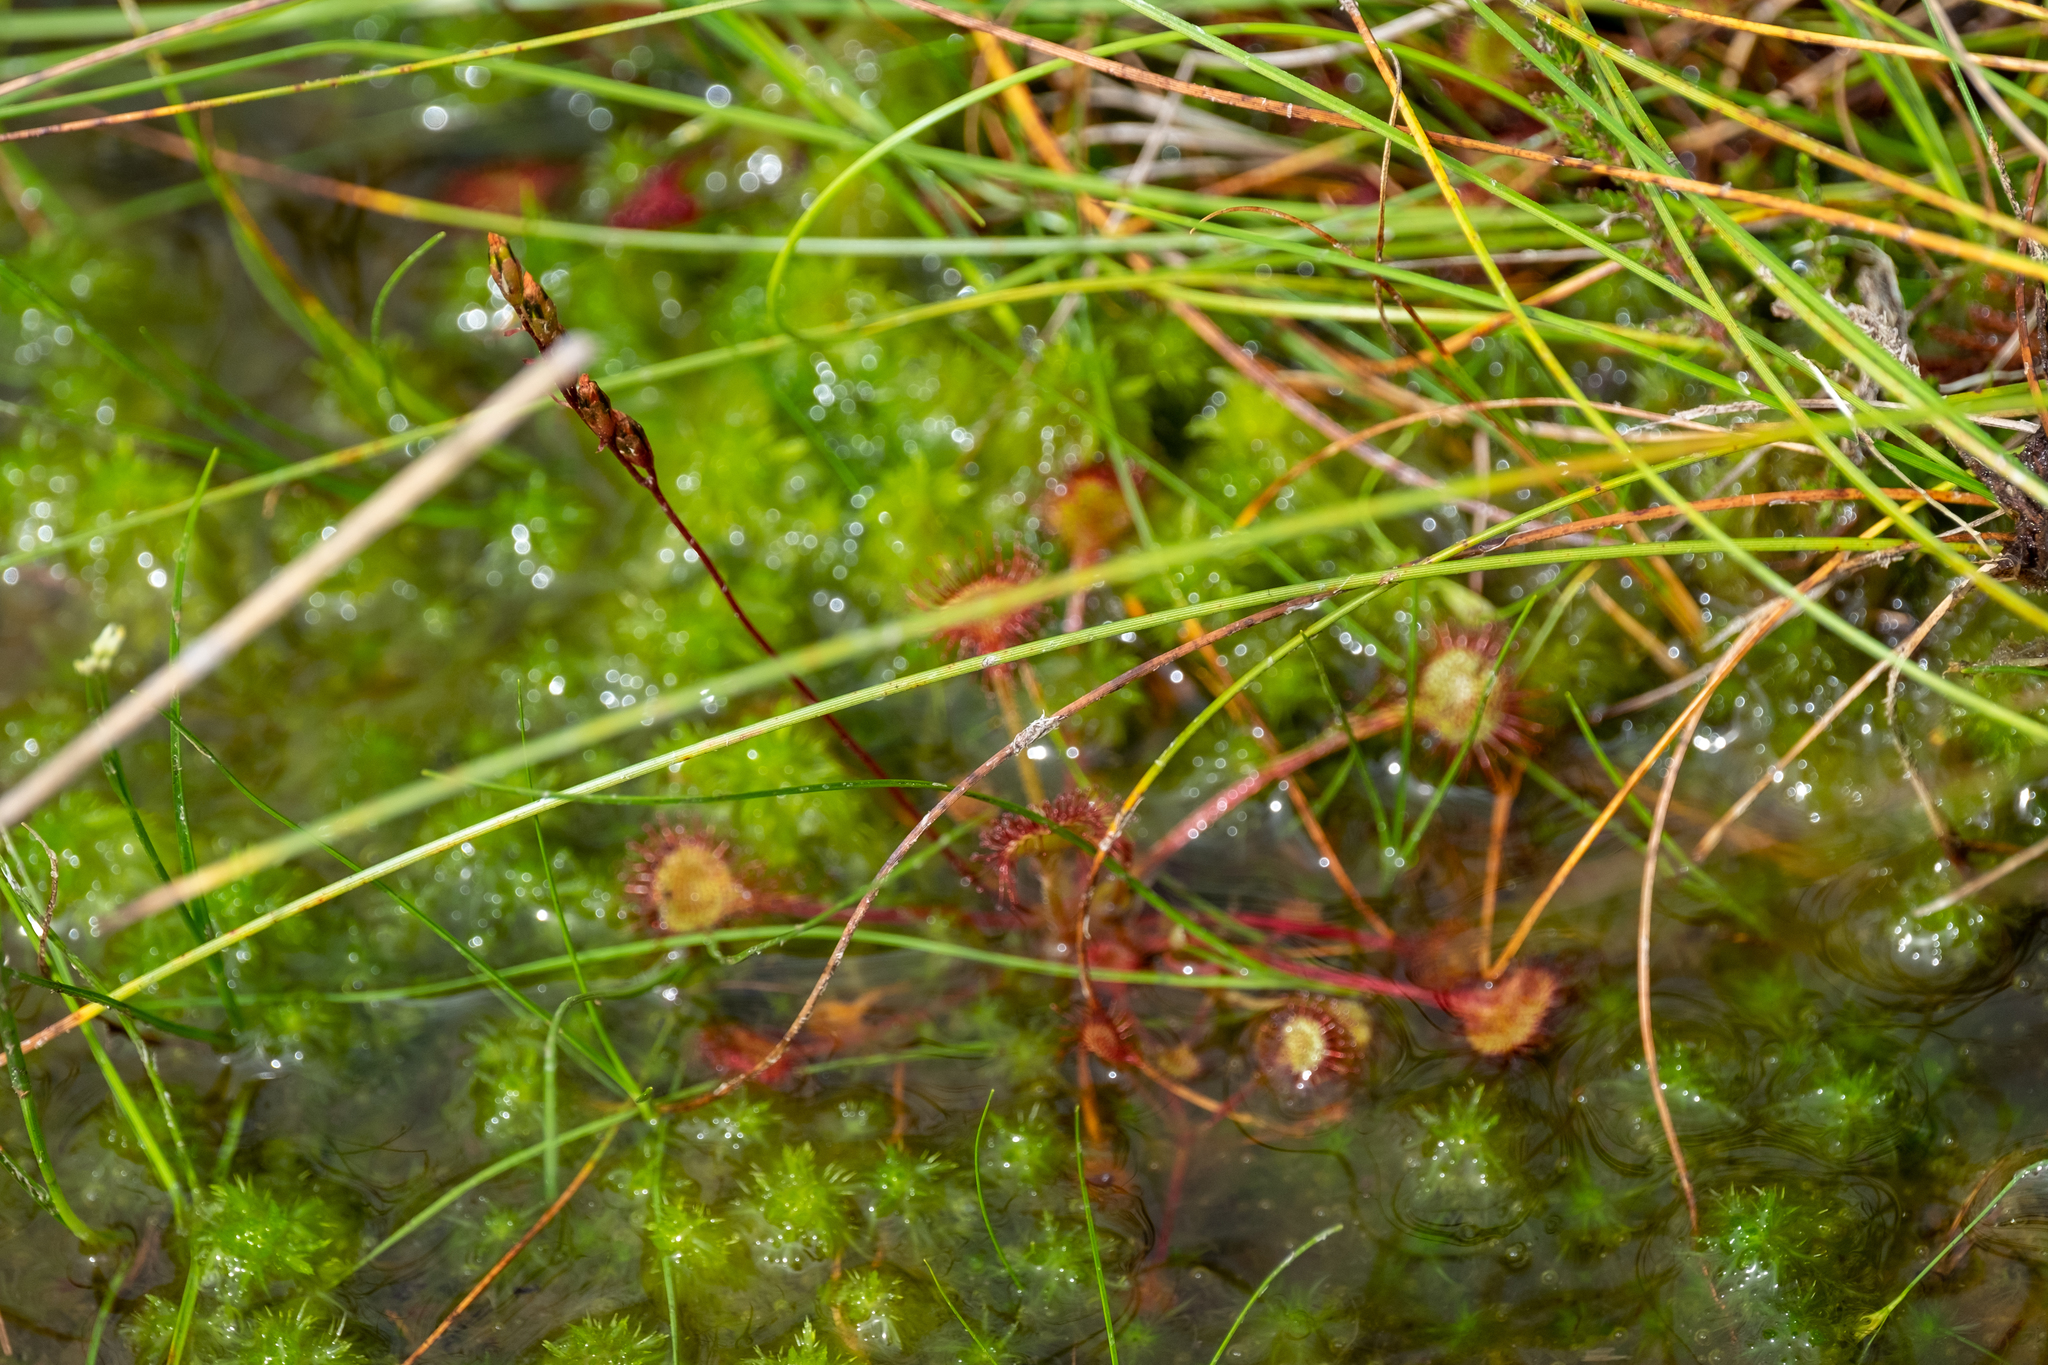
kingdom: Plantae
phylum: Tracheophyta
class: Magnoliopsida
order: Caryophyllales
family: Droseraceae
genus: Drosera
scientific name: Drosera rotundifolia
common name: Round-leaved sundew
